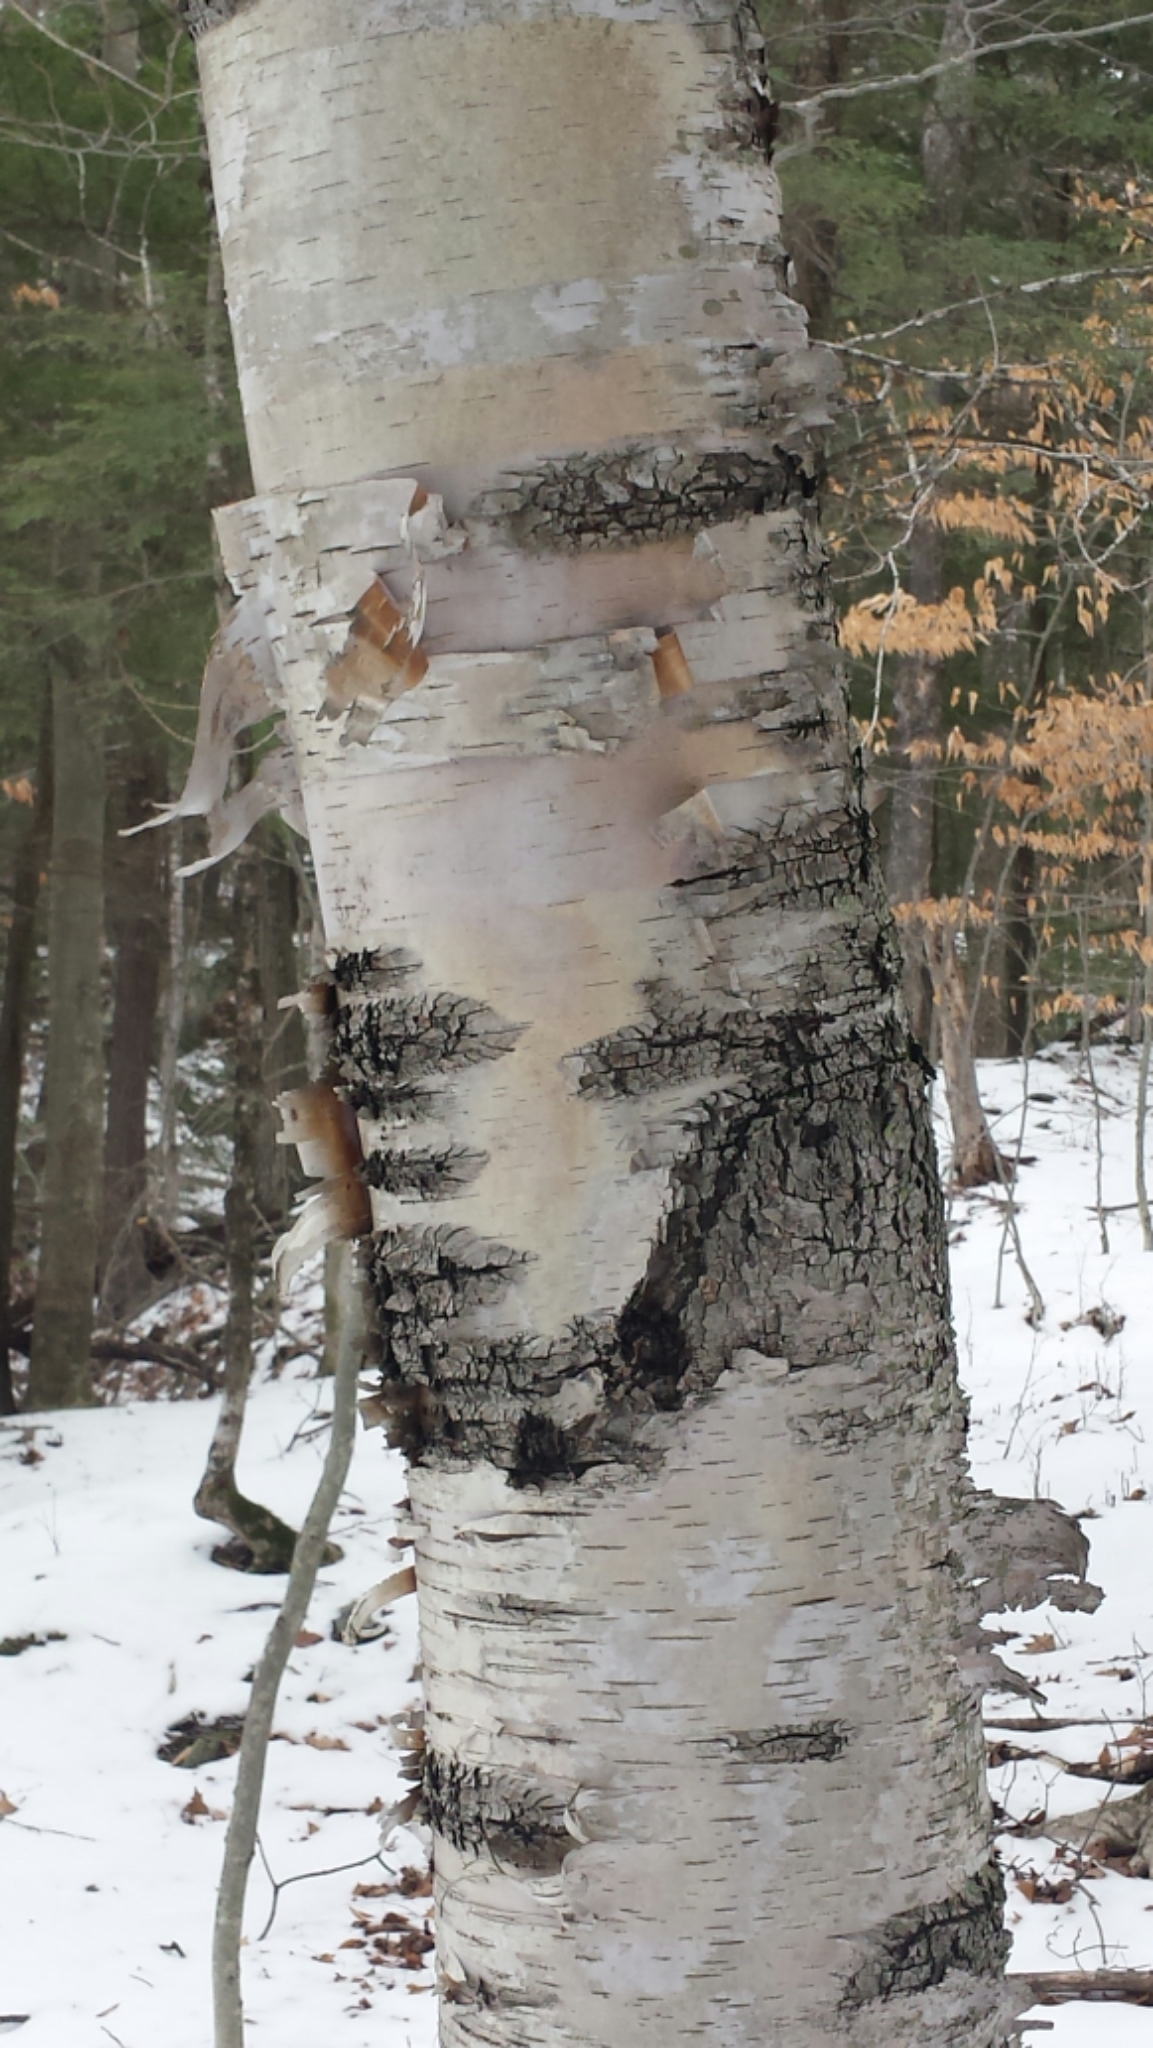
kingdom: Plantae
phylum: Tracheophyta
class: Magnoliopsida
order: Fagales
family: Betulaceae
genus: Betula
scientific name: Betula papyrifera
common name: Paper birch
